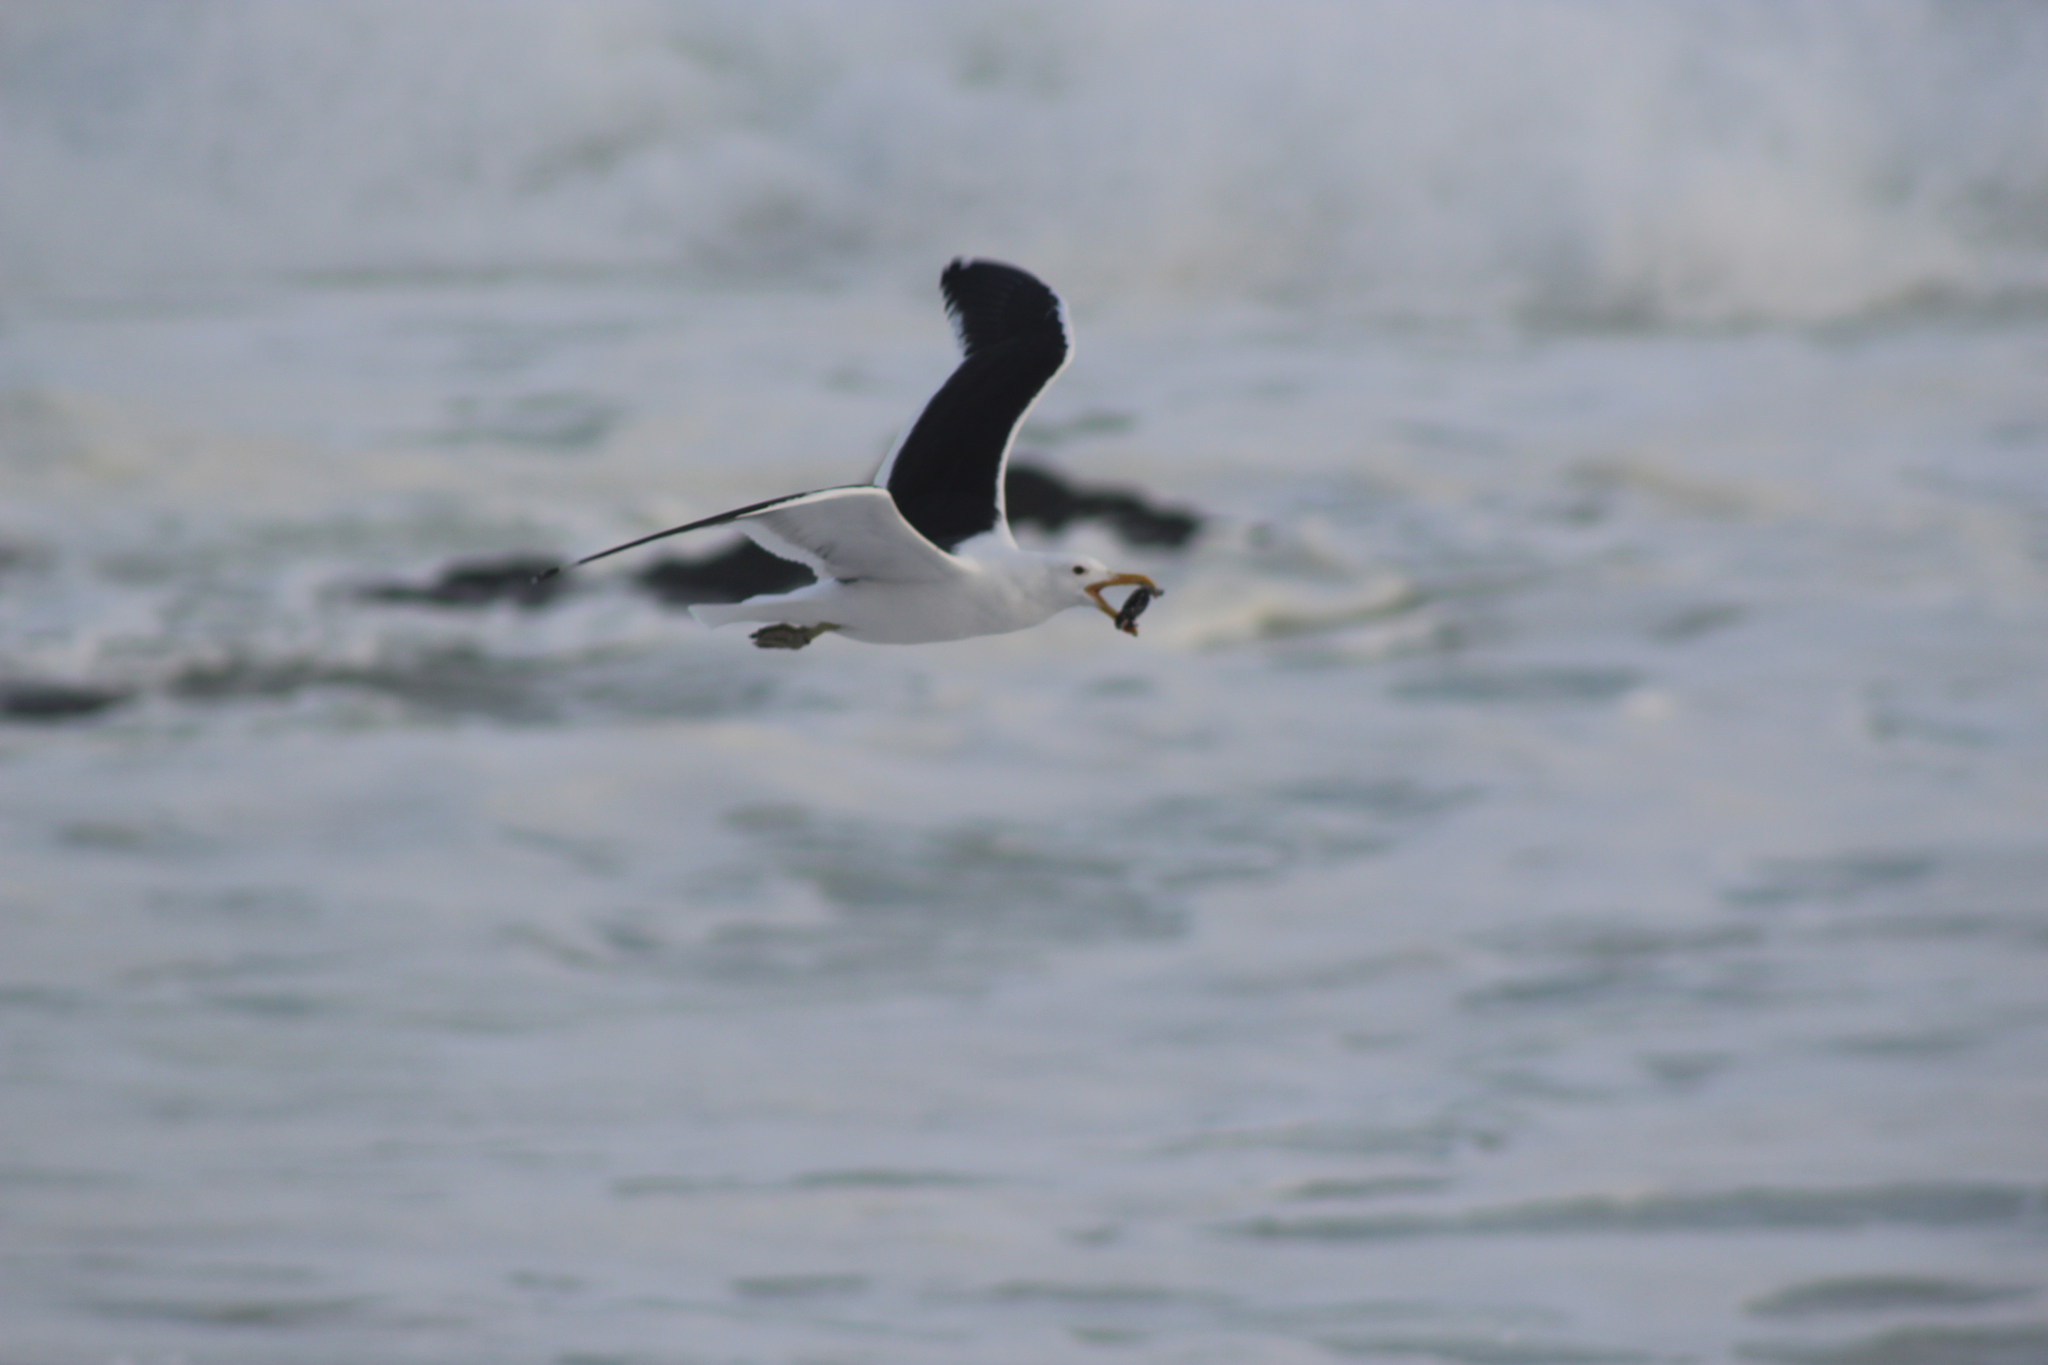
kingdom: Animalia
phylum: Chordata
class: Aves
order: Charadriiformes
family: Laridae
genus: Larus
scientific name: Larus dominicanus
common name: Kelp gull
